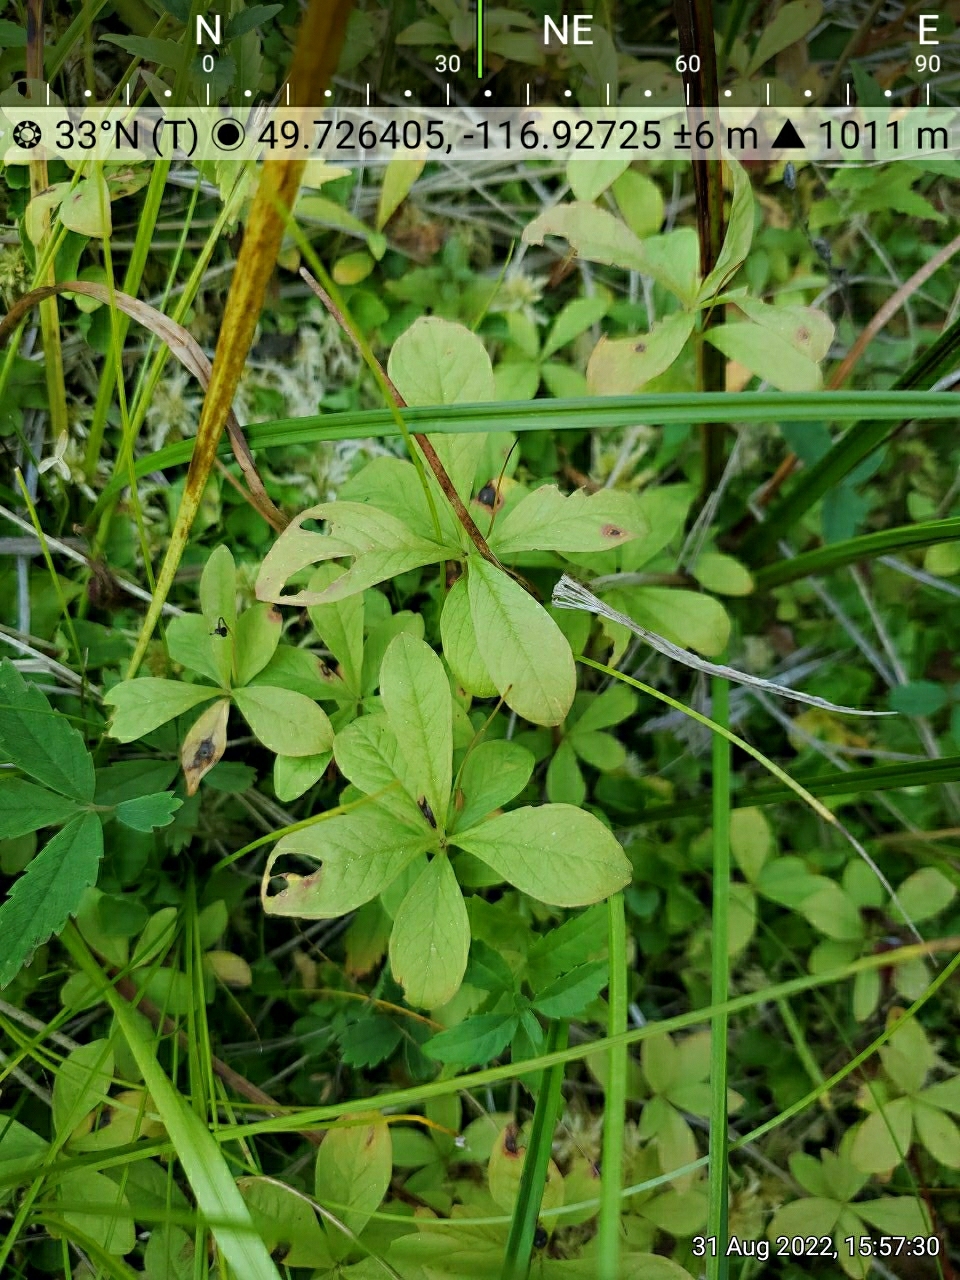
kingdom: Plantae
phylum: Tracheophyta
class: Magnoliopsida
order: Ericales
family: Primulaceae
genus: Lysimachia
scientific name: Lysimachia europaea
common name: Arctic starflower
